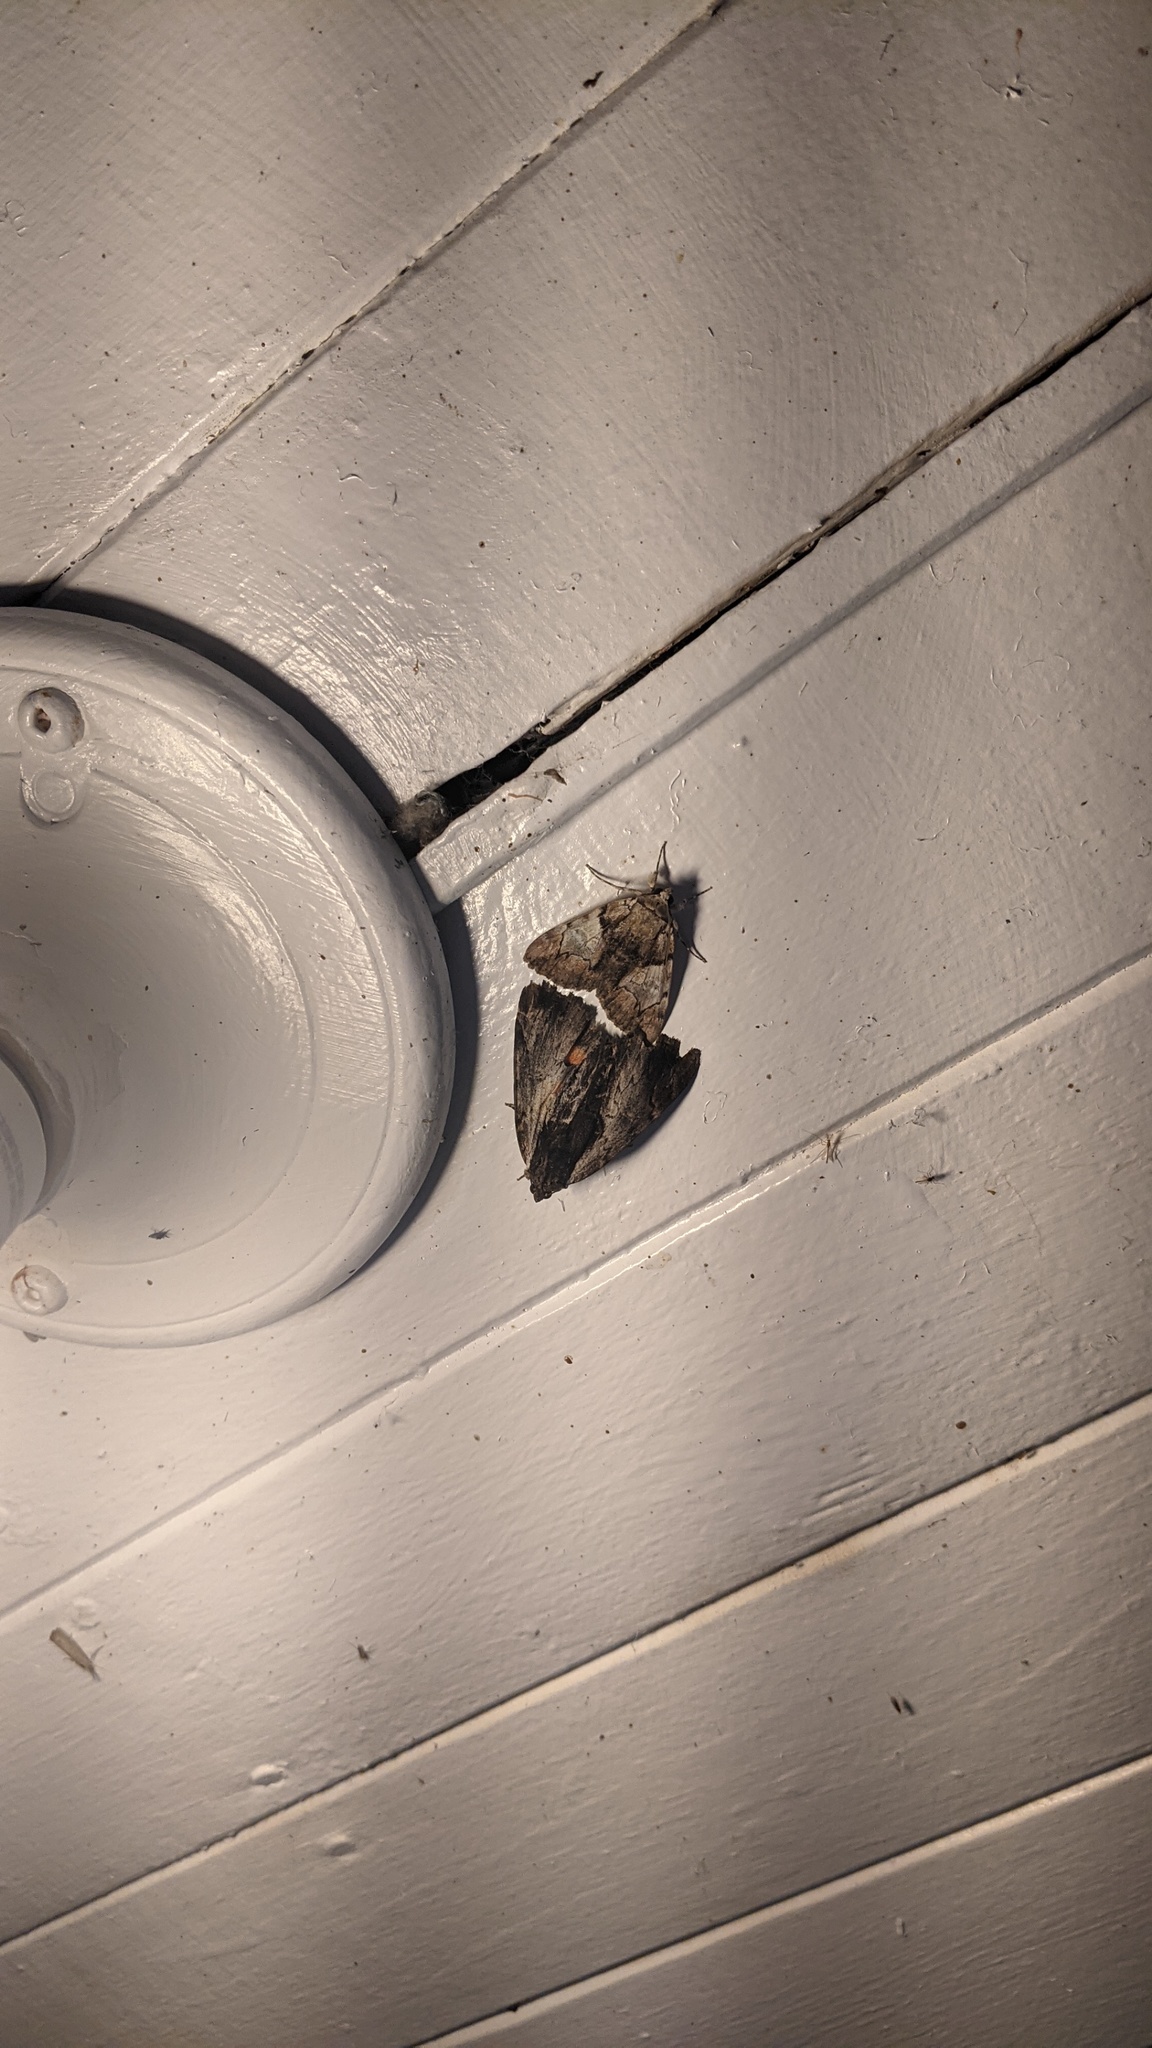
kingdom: Animalia
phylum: Arthropoda
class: Insecta
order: Lepidoptera
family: Erebidae
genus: Catocala
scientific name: Catocala ultronia
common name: Ultronia underwing
